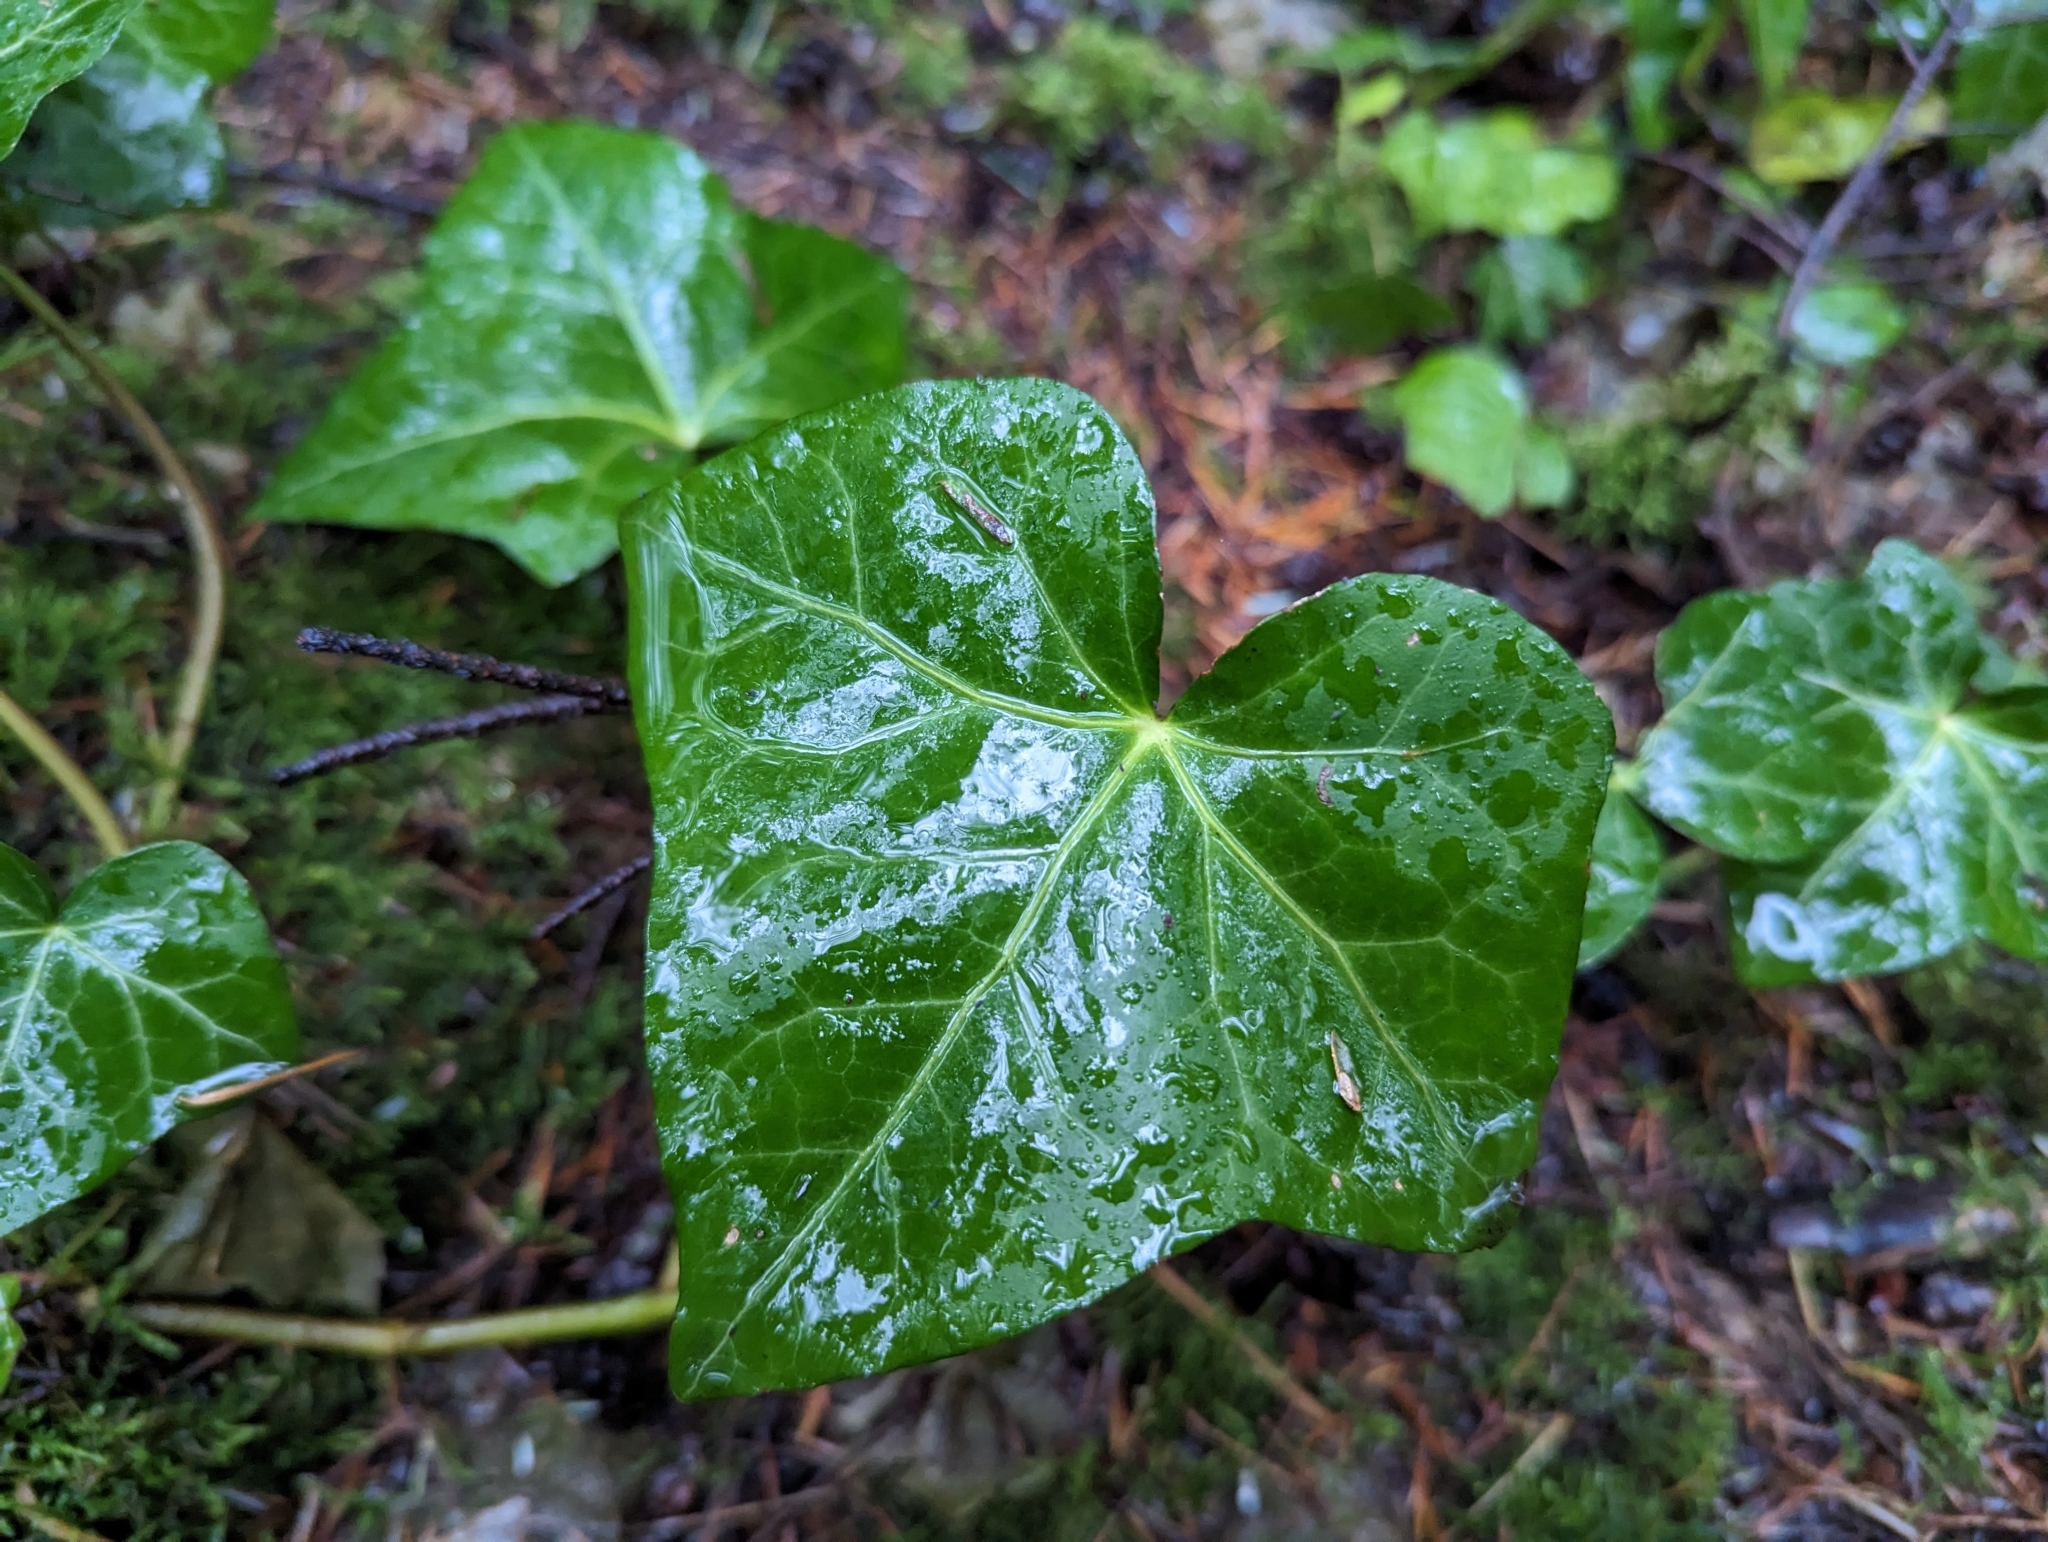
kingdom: Plantae
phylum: Tracheophyta
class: Magnoliopsida
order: Apiales
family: Araliaceae
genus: Hedera
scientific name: Hedera helix
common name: Ivy
